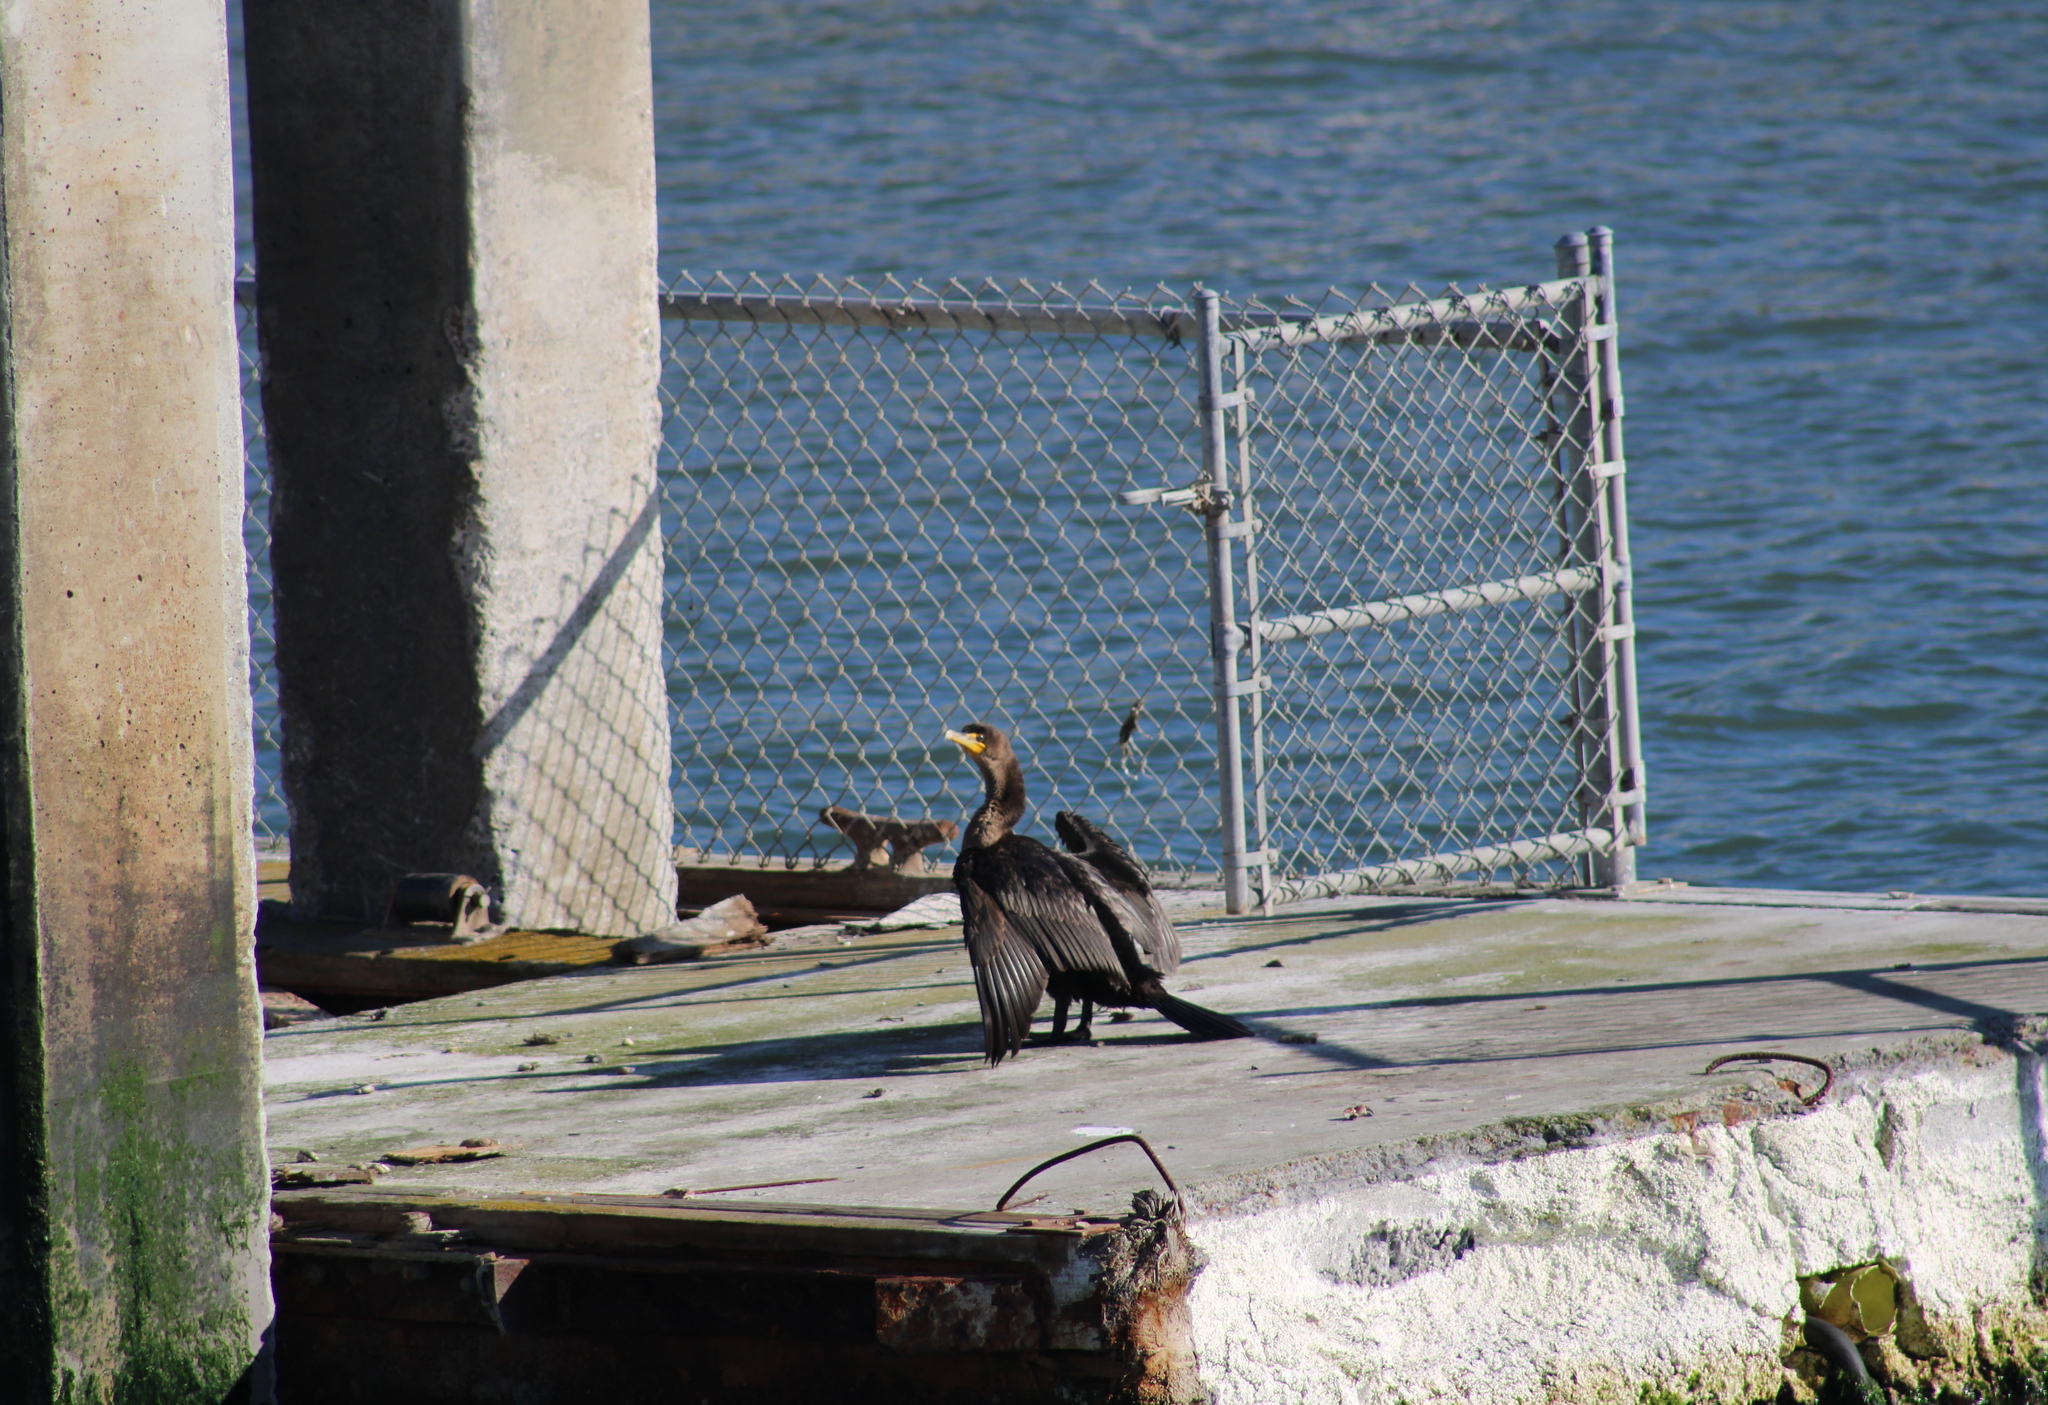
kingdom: Animalia
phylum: Chordata
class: Aves
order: Suliformes
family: Phalacrocoracidae
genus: Phalacrocorax
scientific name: Phalacrocorax auritus
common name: Double-crested cormorant
